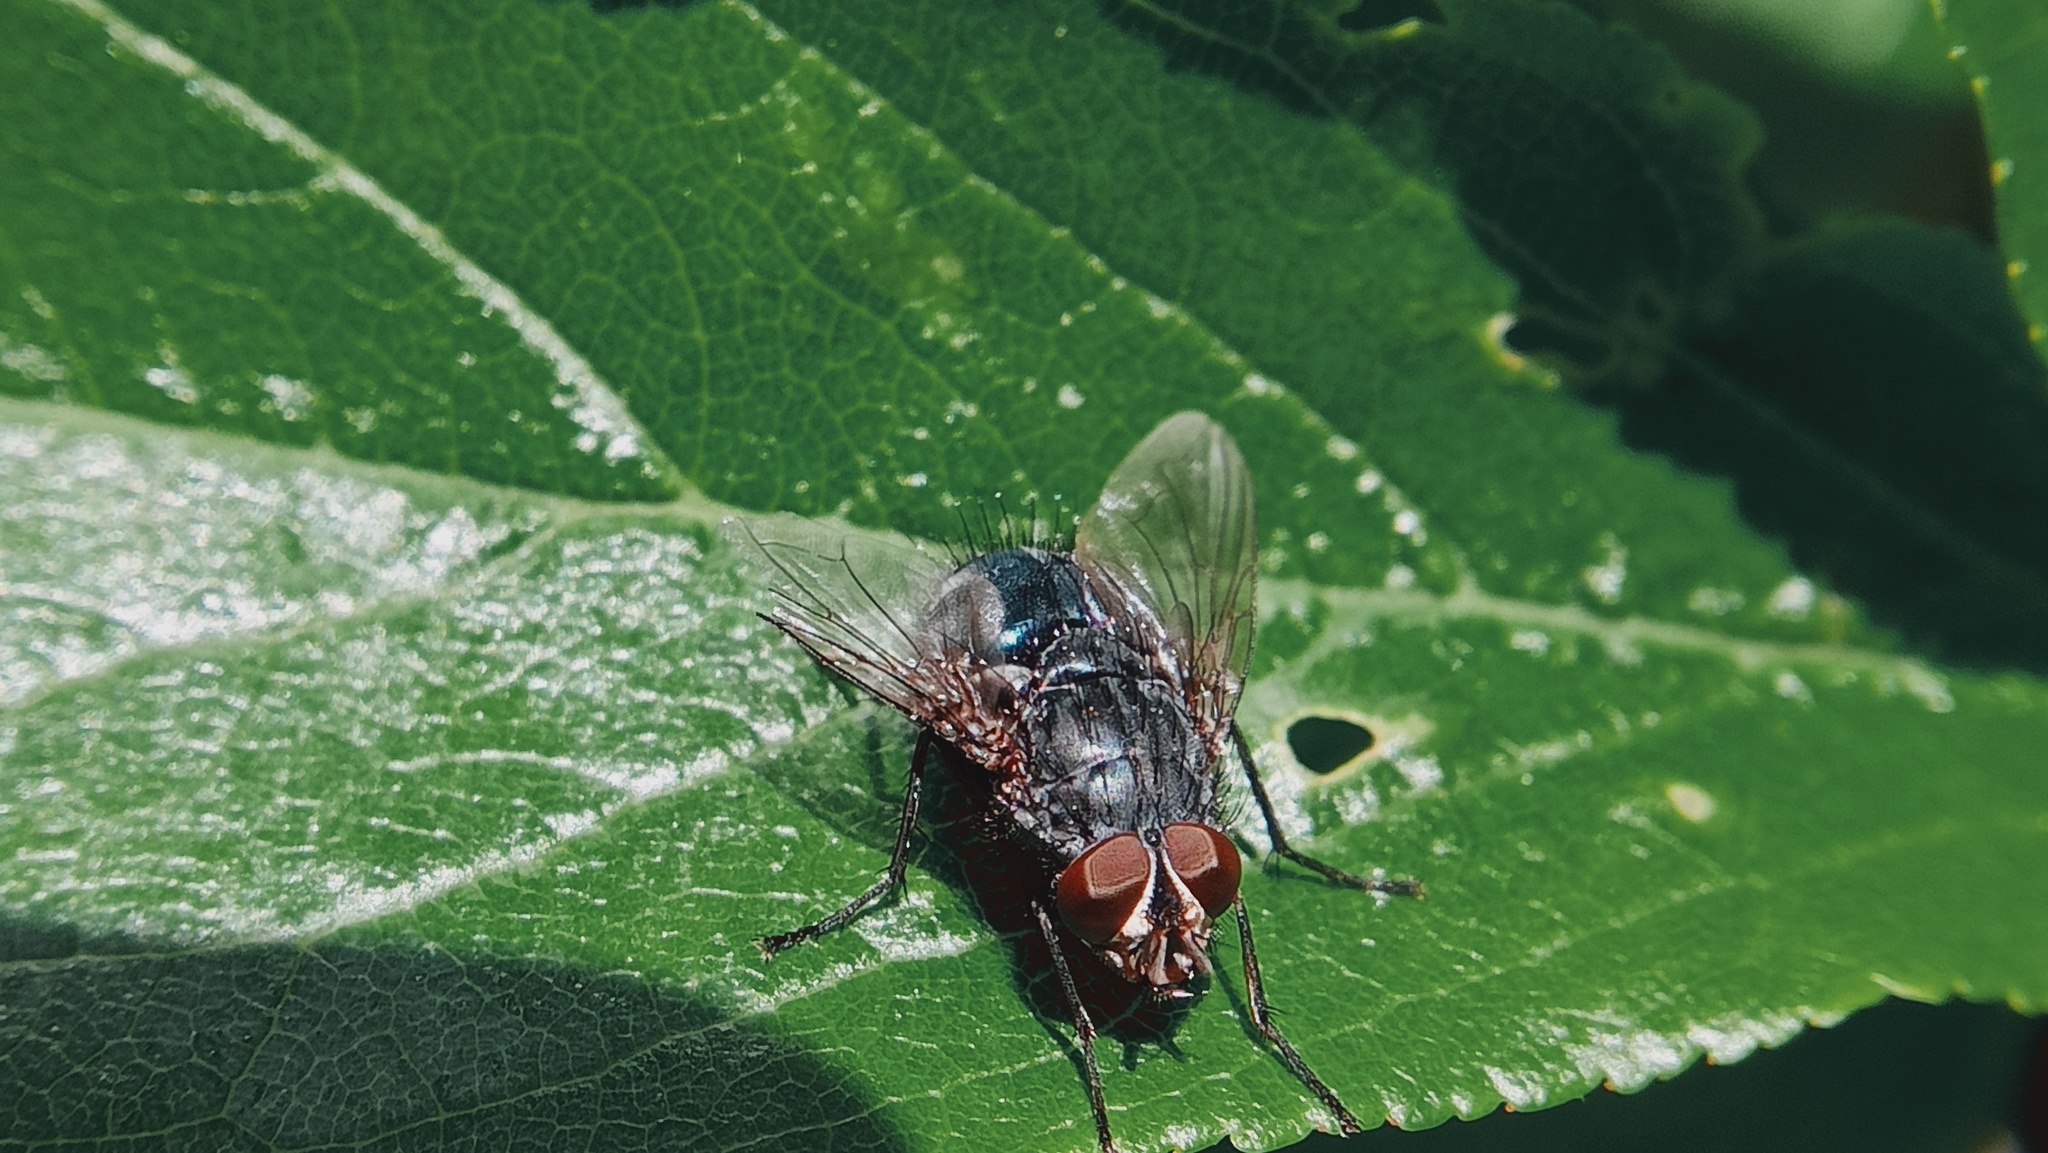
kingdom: Animalia
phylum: Arthropoda
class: Insecta
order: Diptera
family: Calliphoridae
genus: Calliphora
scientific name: Calliphora vicina
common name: Common blow flie
